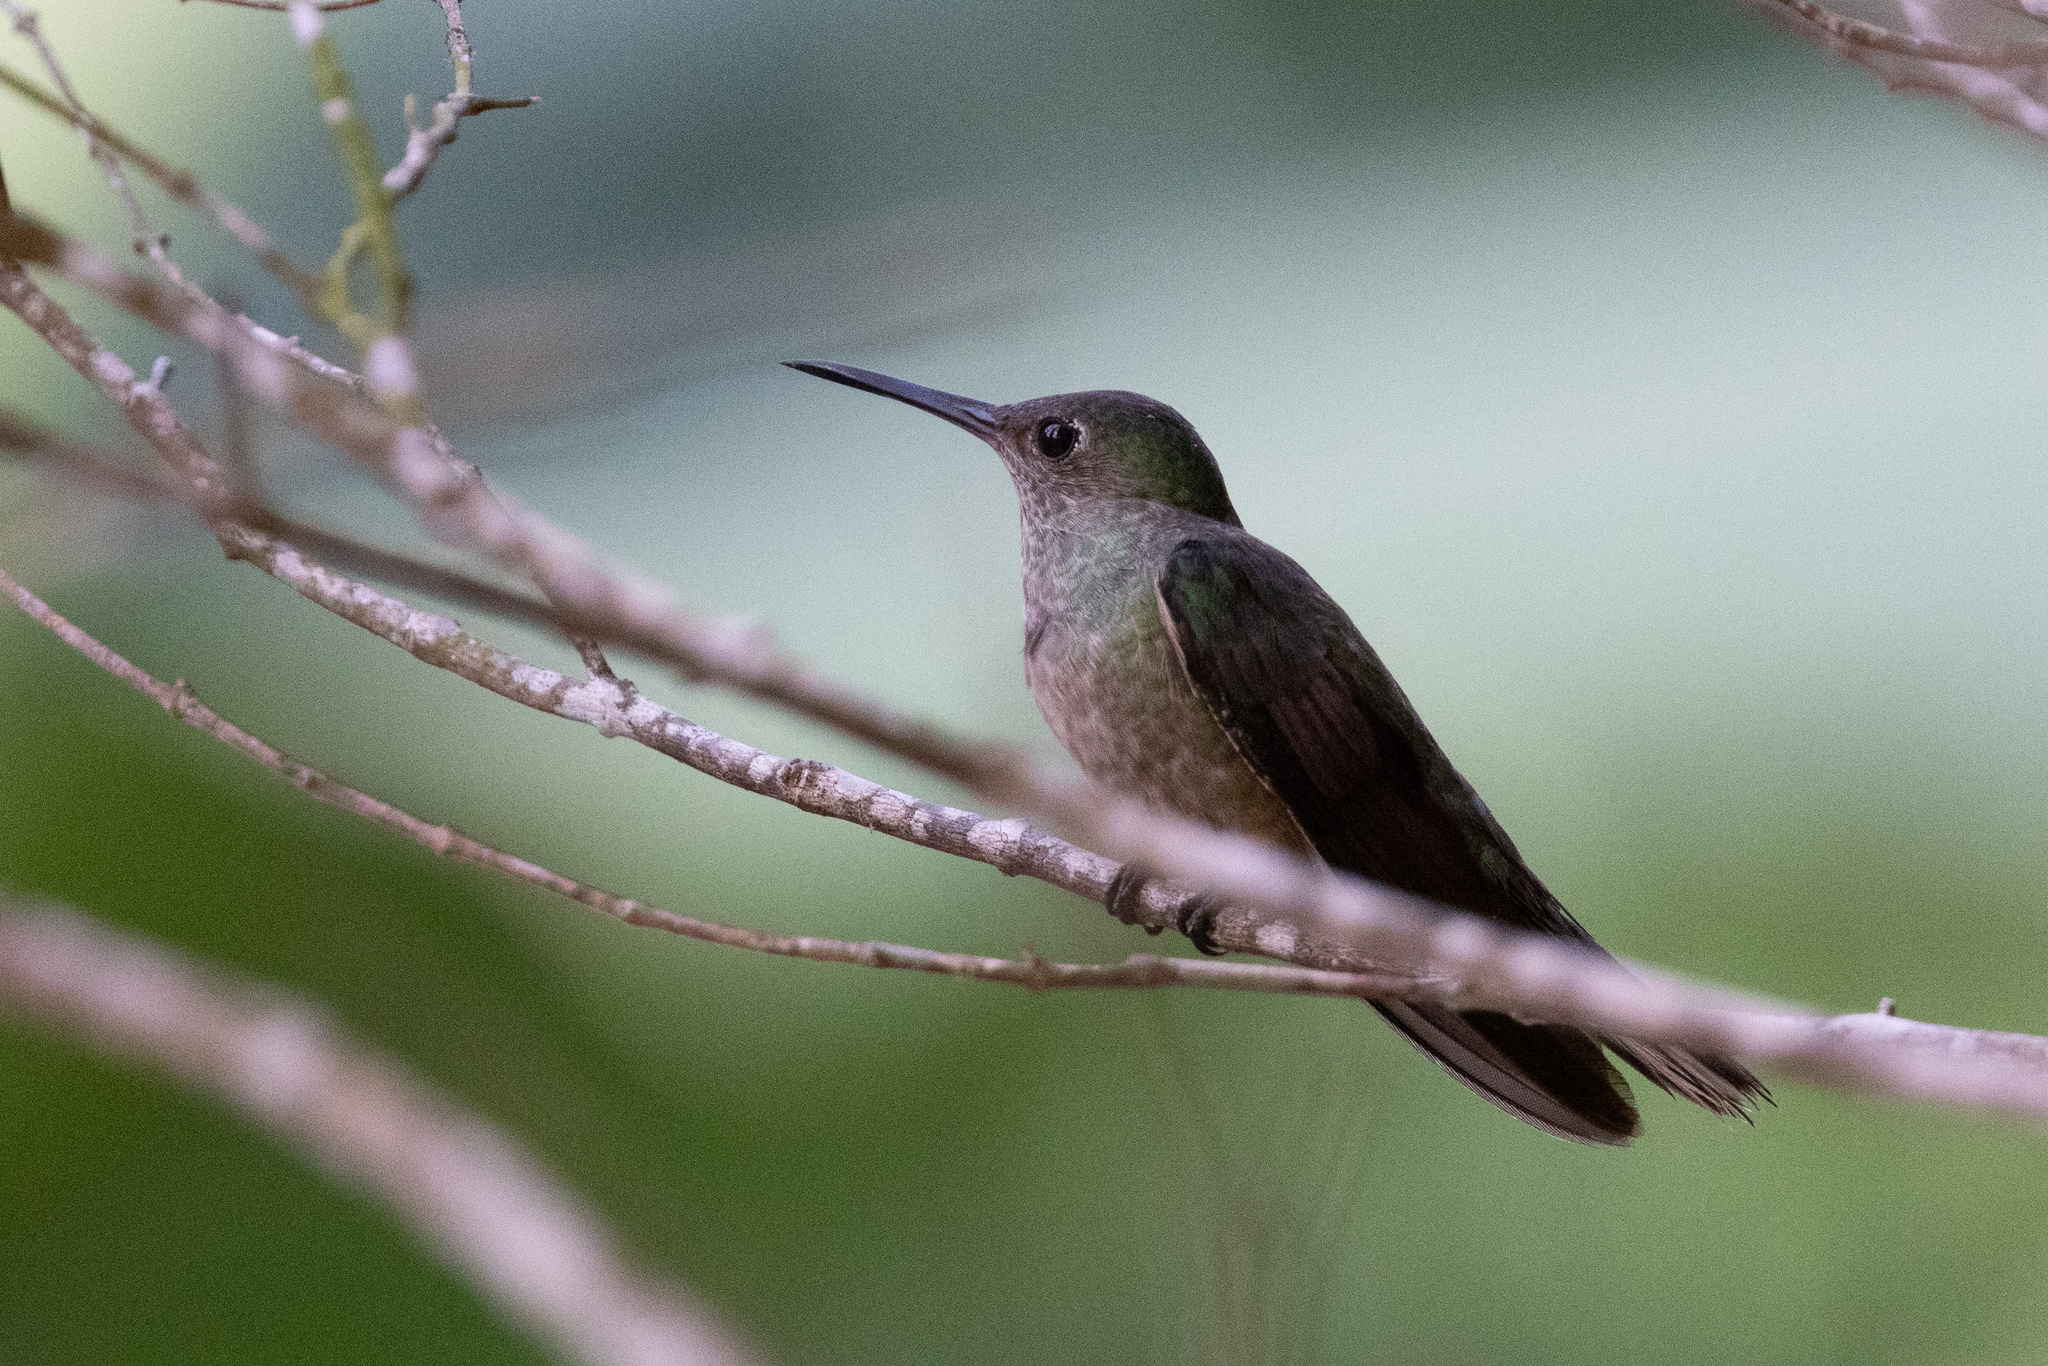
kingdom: Animalia
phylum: Chordata
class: Aves
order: Apodiformes
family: Trochilidae
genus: Phaeochroa
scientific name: Phaeochroa cuvierii
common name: Scaly-breasted hummingbird
